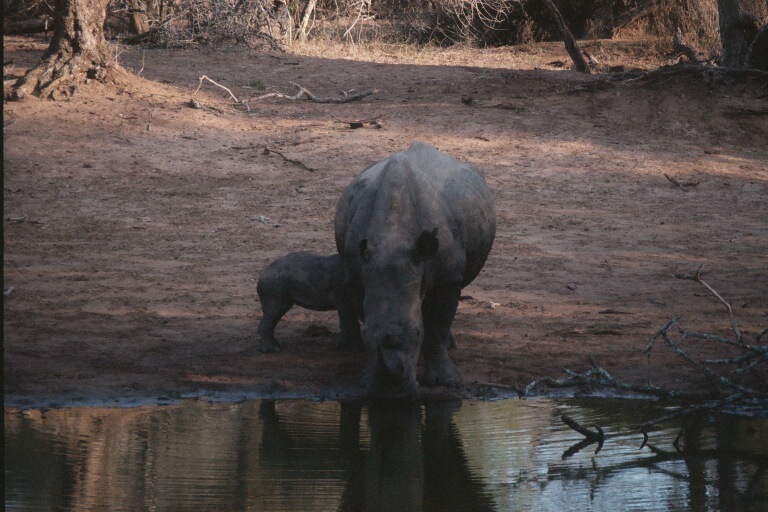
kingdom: Animalia
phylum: Chordata
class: Mammalia
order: Perissodactyla
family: Rhinocerotidae
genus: Ceratotherium
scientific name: Ceratotherium simum
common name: White rhinoceros
